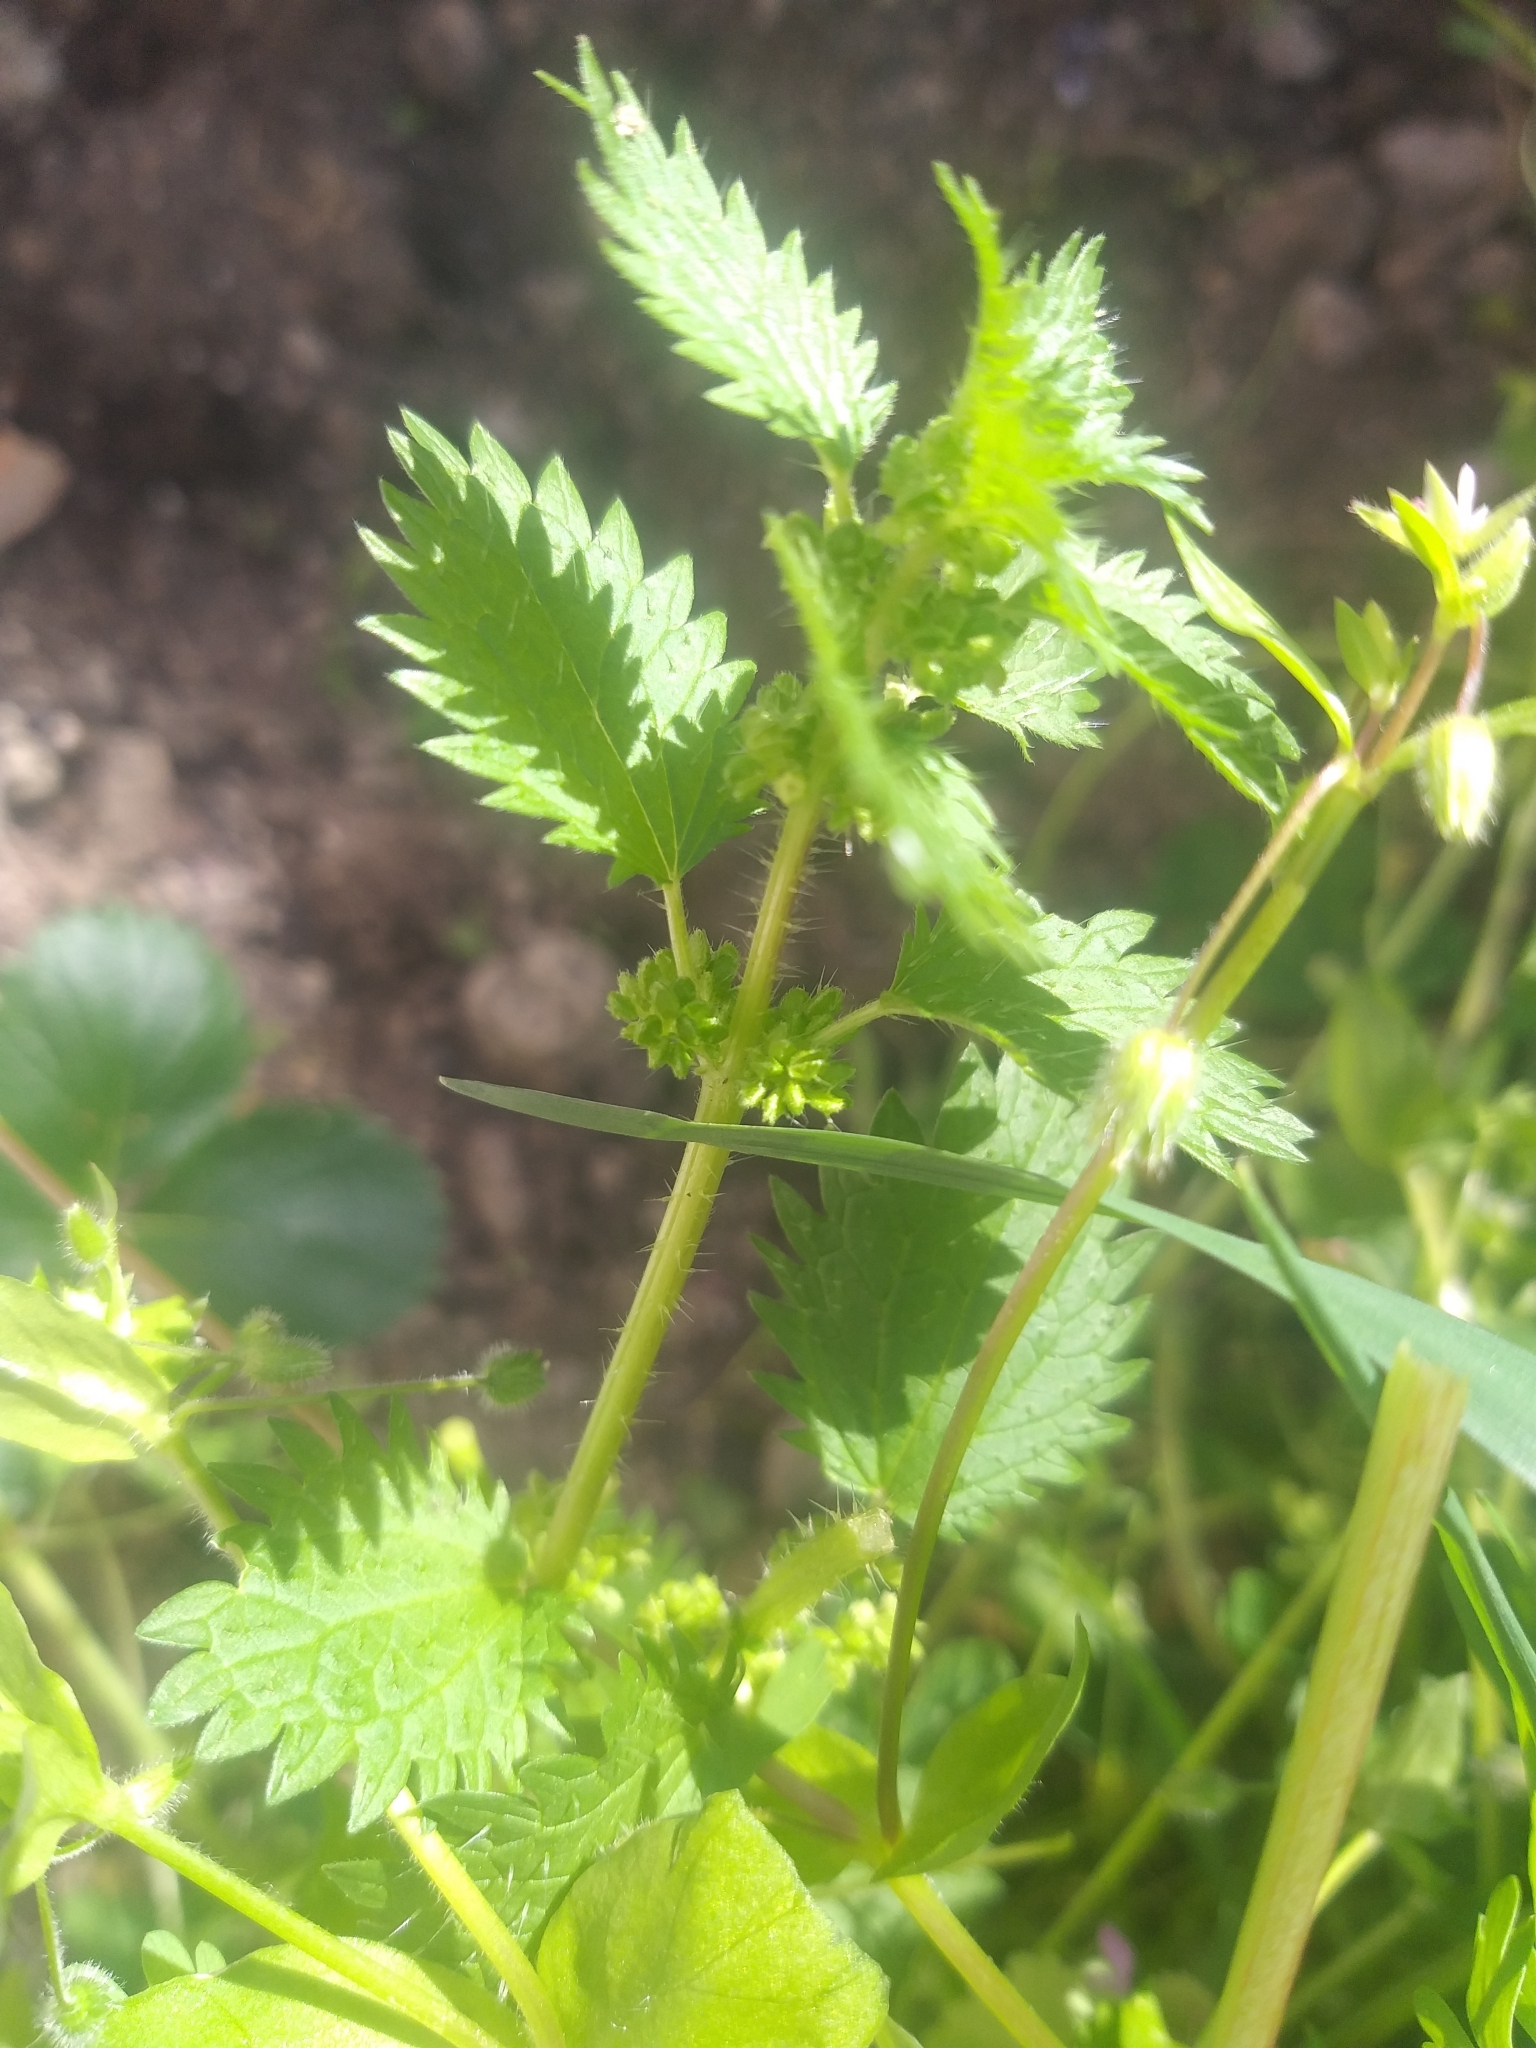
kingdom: Plantae
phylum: Tracheophyta
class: Magnoliopsida
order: Rosales
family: Urticaceae
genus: Urtica
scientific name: Urtica urens
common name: Dwarf nettle
